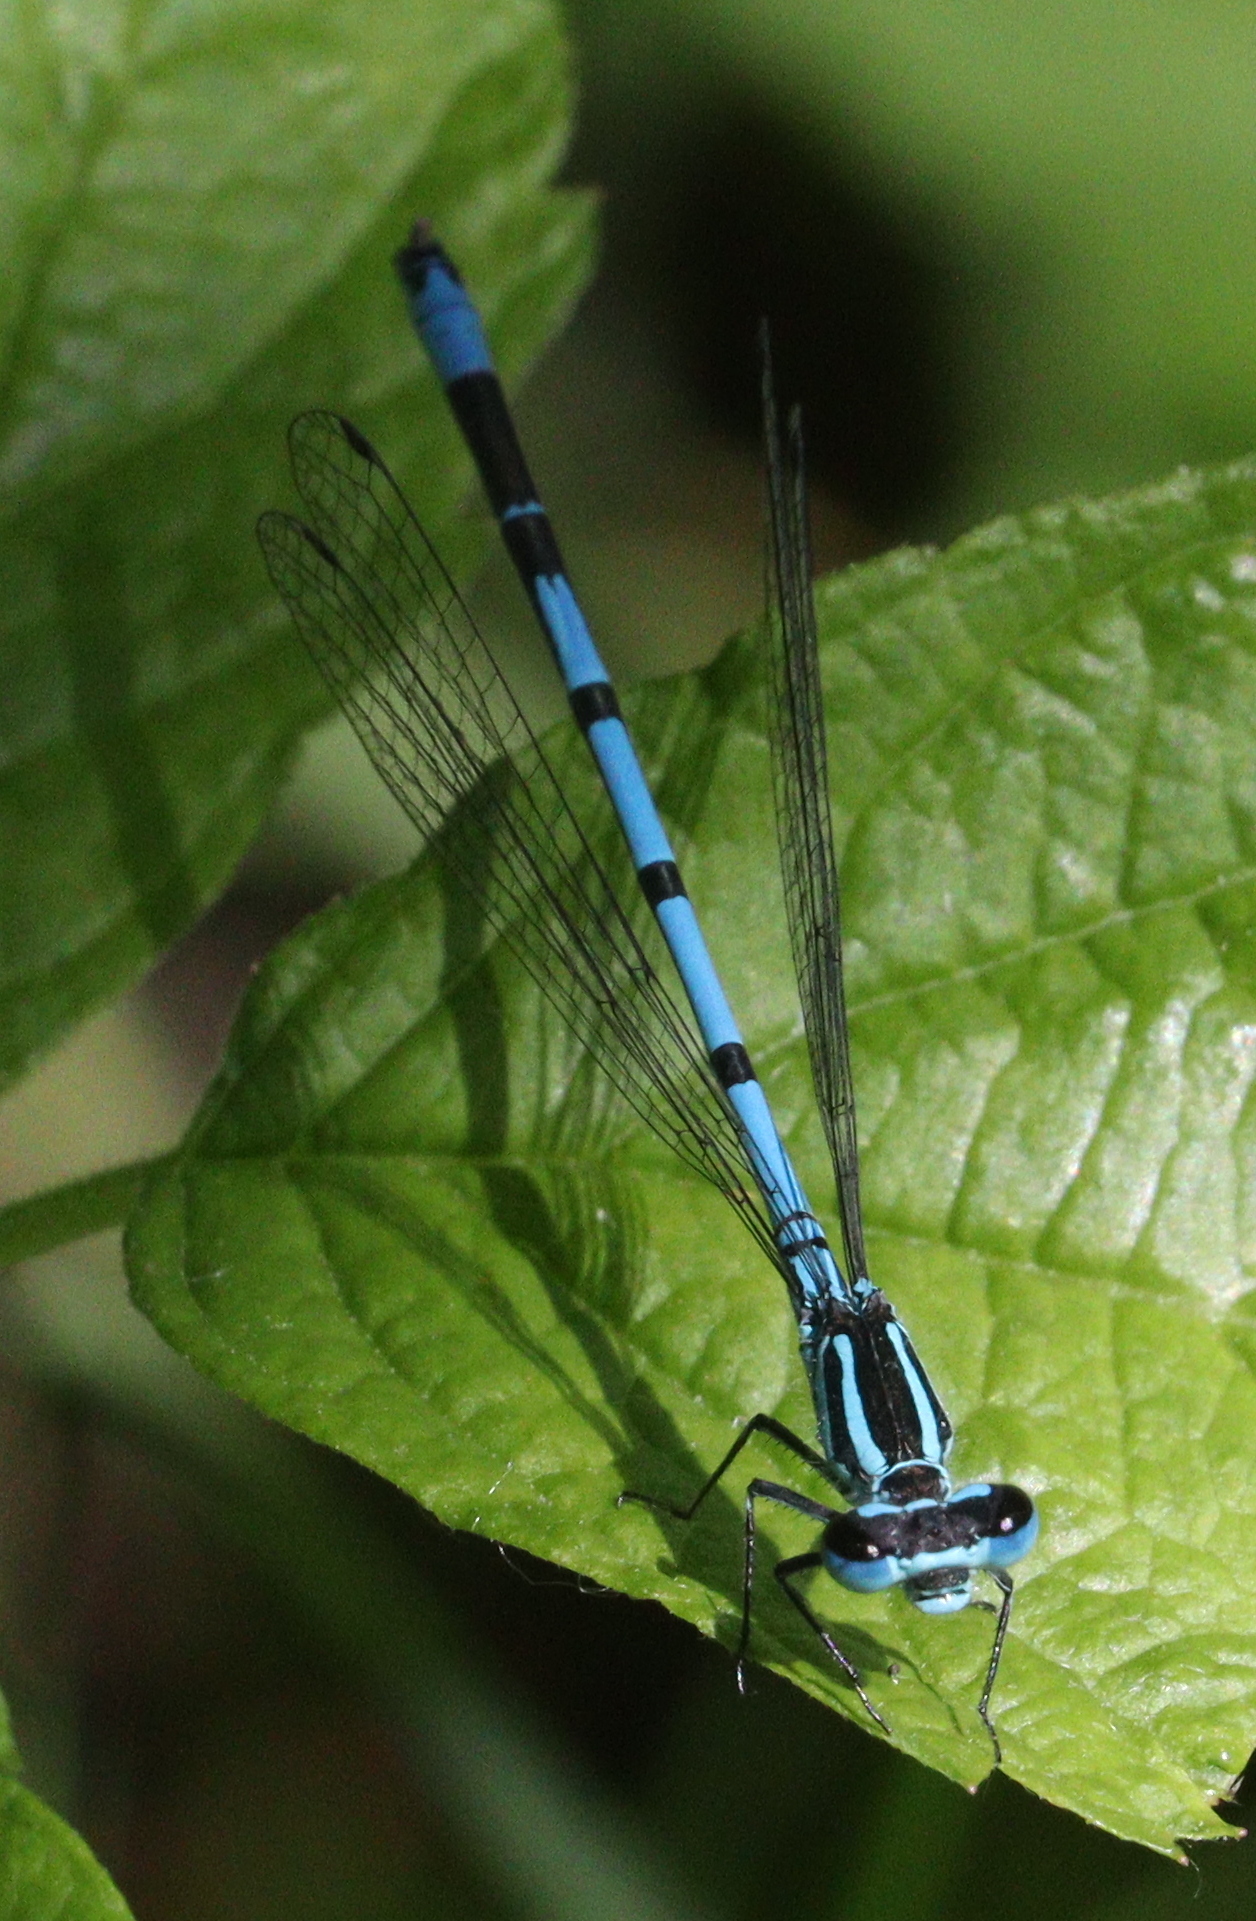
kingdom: Animalia
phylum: Arthropoda
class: Insecta
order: Odonata
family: Coenagrionidae
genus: Coenagrion
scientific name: Coenagrion puella
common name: Azure damselfly
